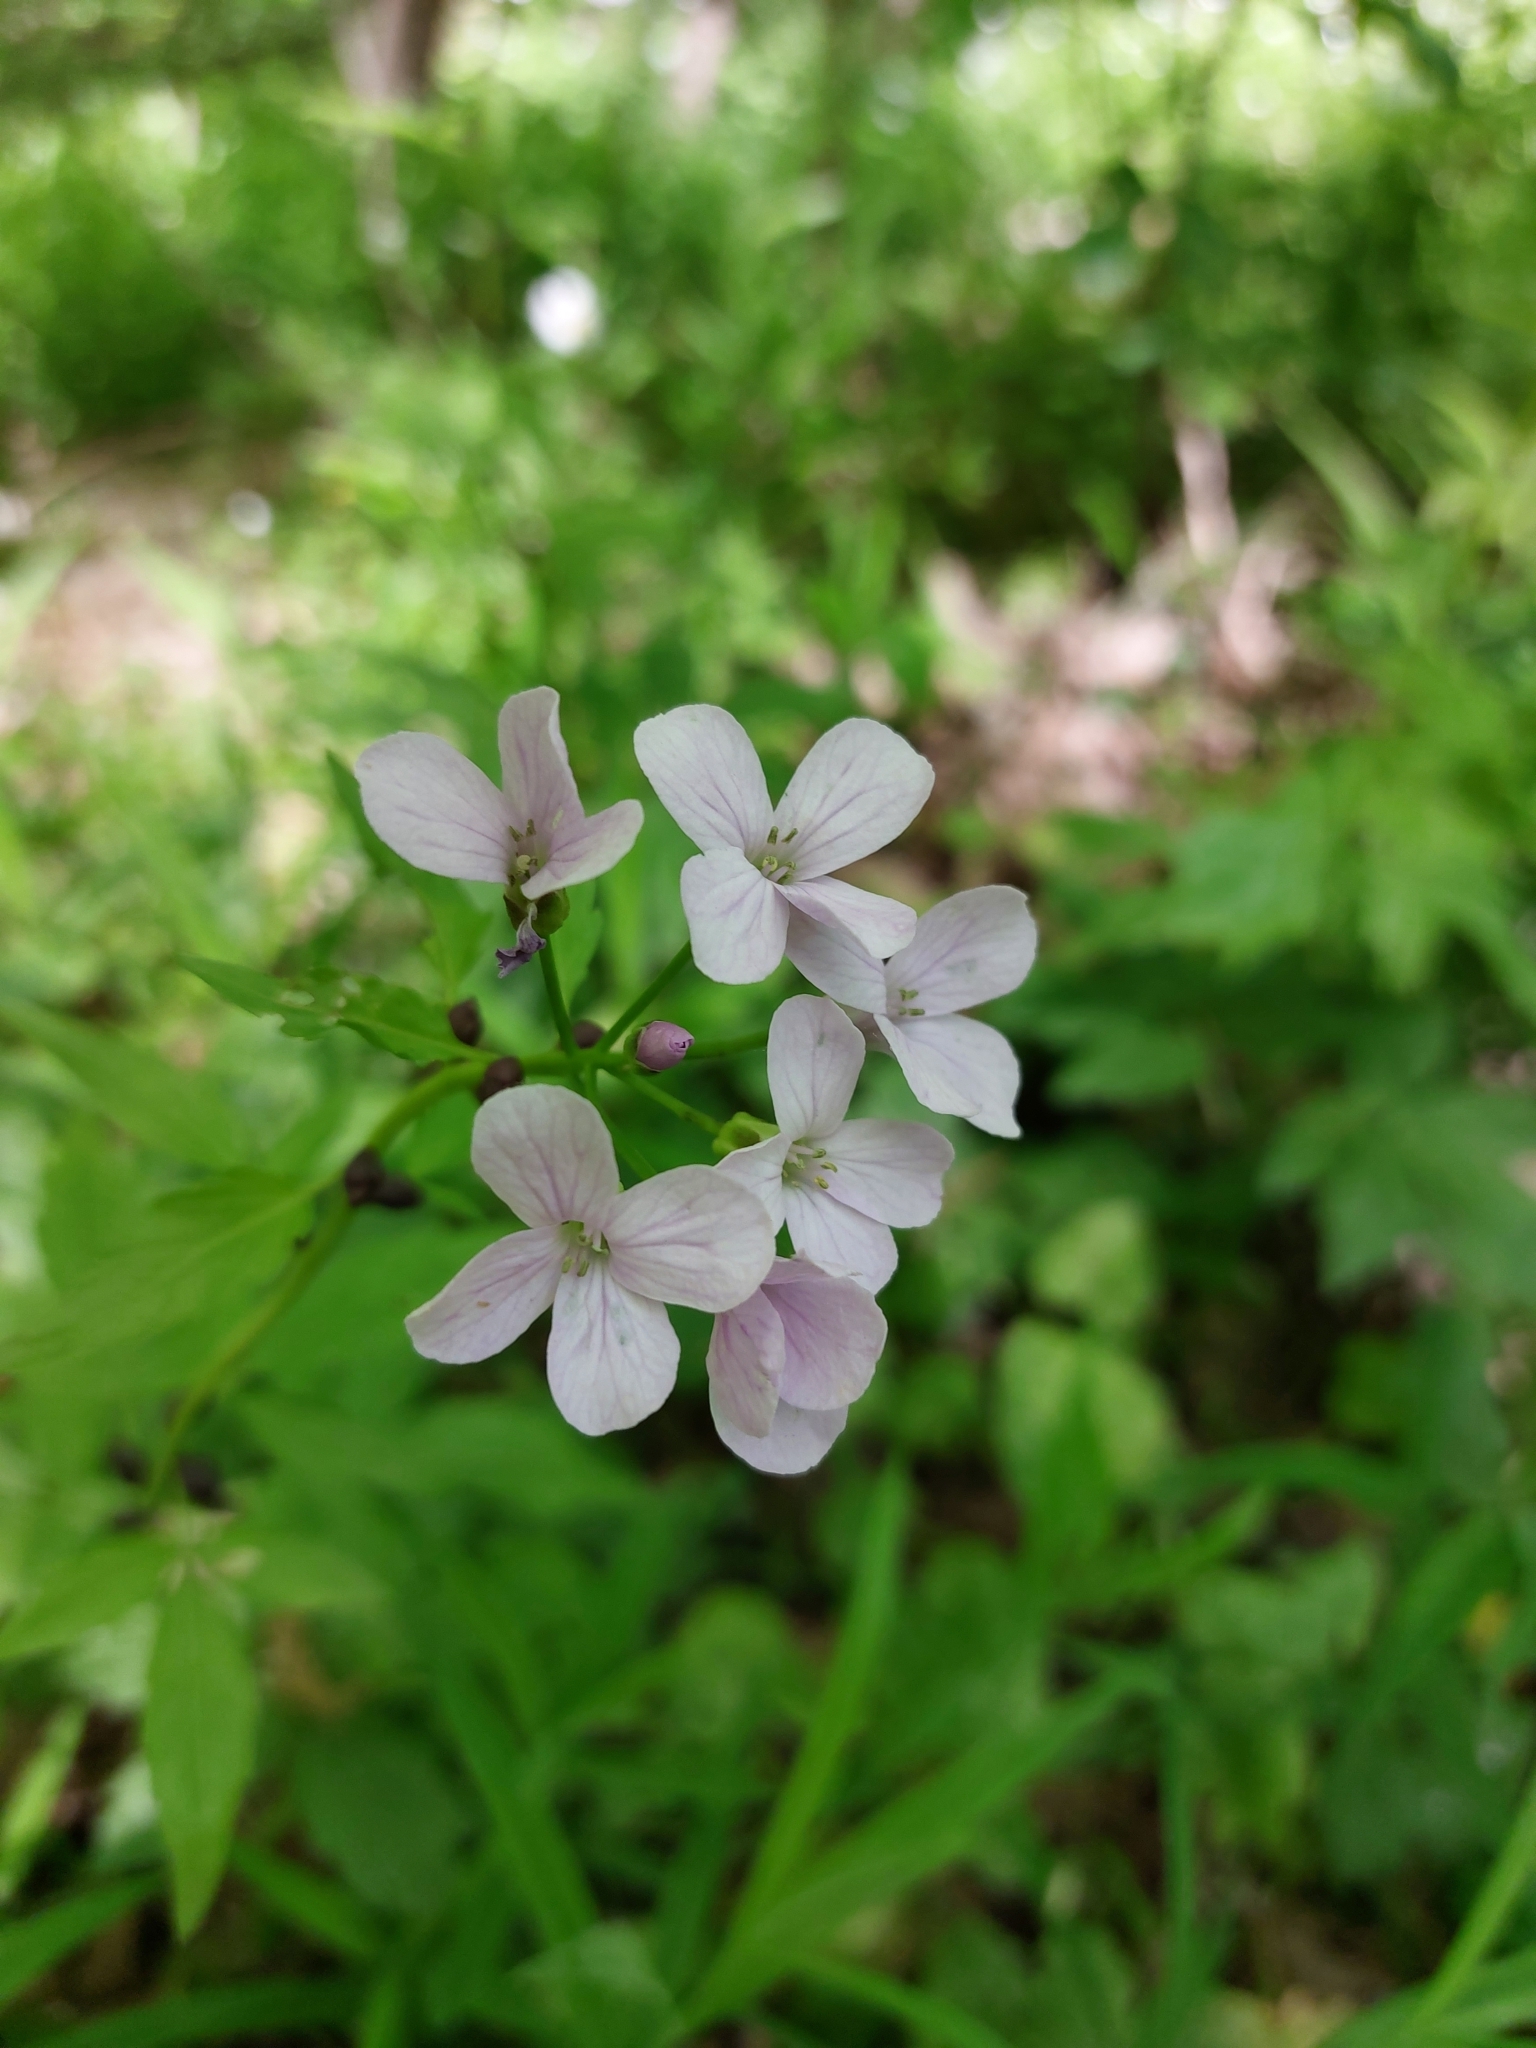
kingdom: Plantae
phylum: Tracheophyta
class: Magnoliopsida
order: Brassicales
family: Brassicaceae
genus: Cardamine
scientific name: Cardamine bulbifera
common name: Coralroot bittercress
